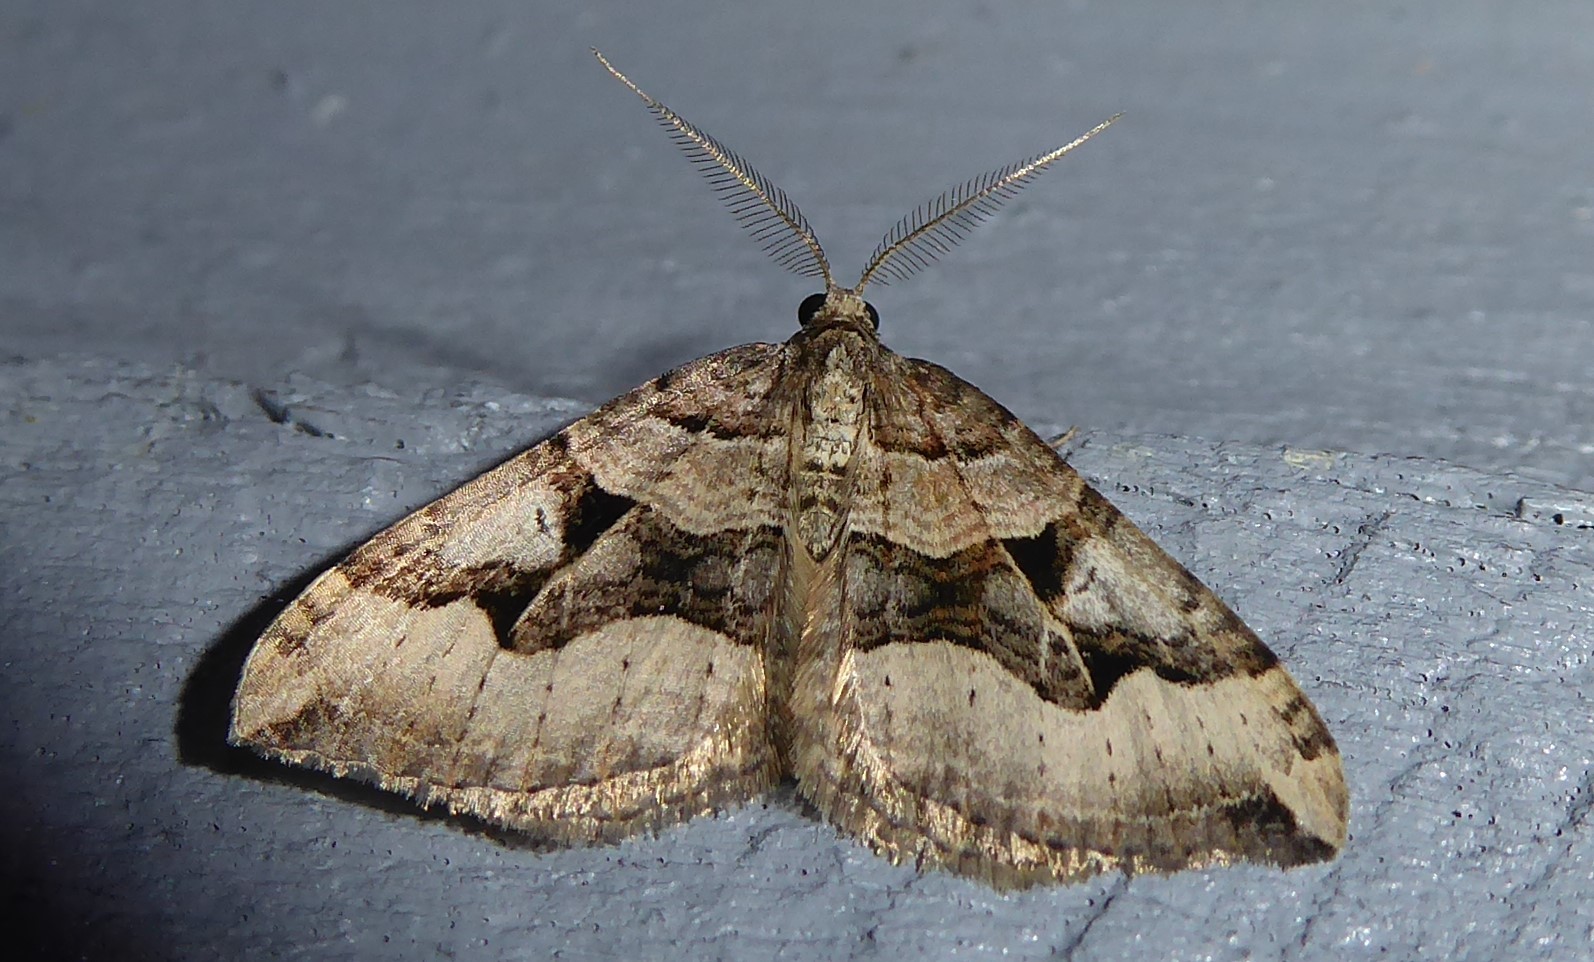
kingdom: Animalia
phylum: Arthropoda
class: Insecta
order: Lepidoptera
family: Geometridae
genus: Xanthorhoe
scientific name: Xanthorhoe semifissata
